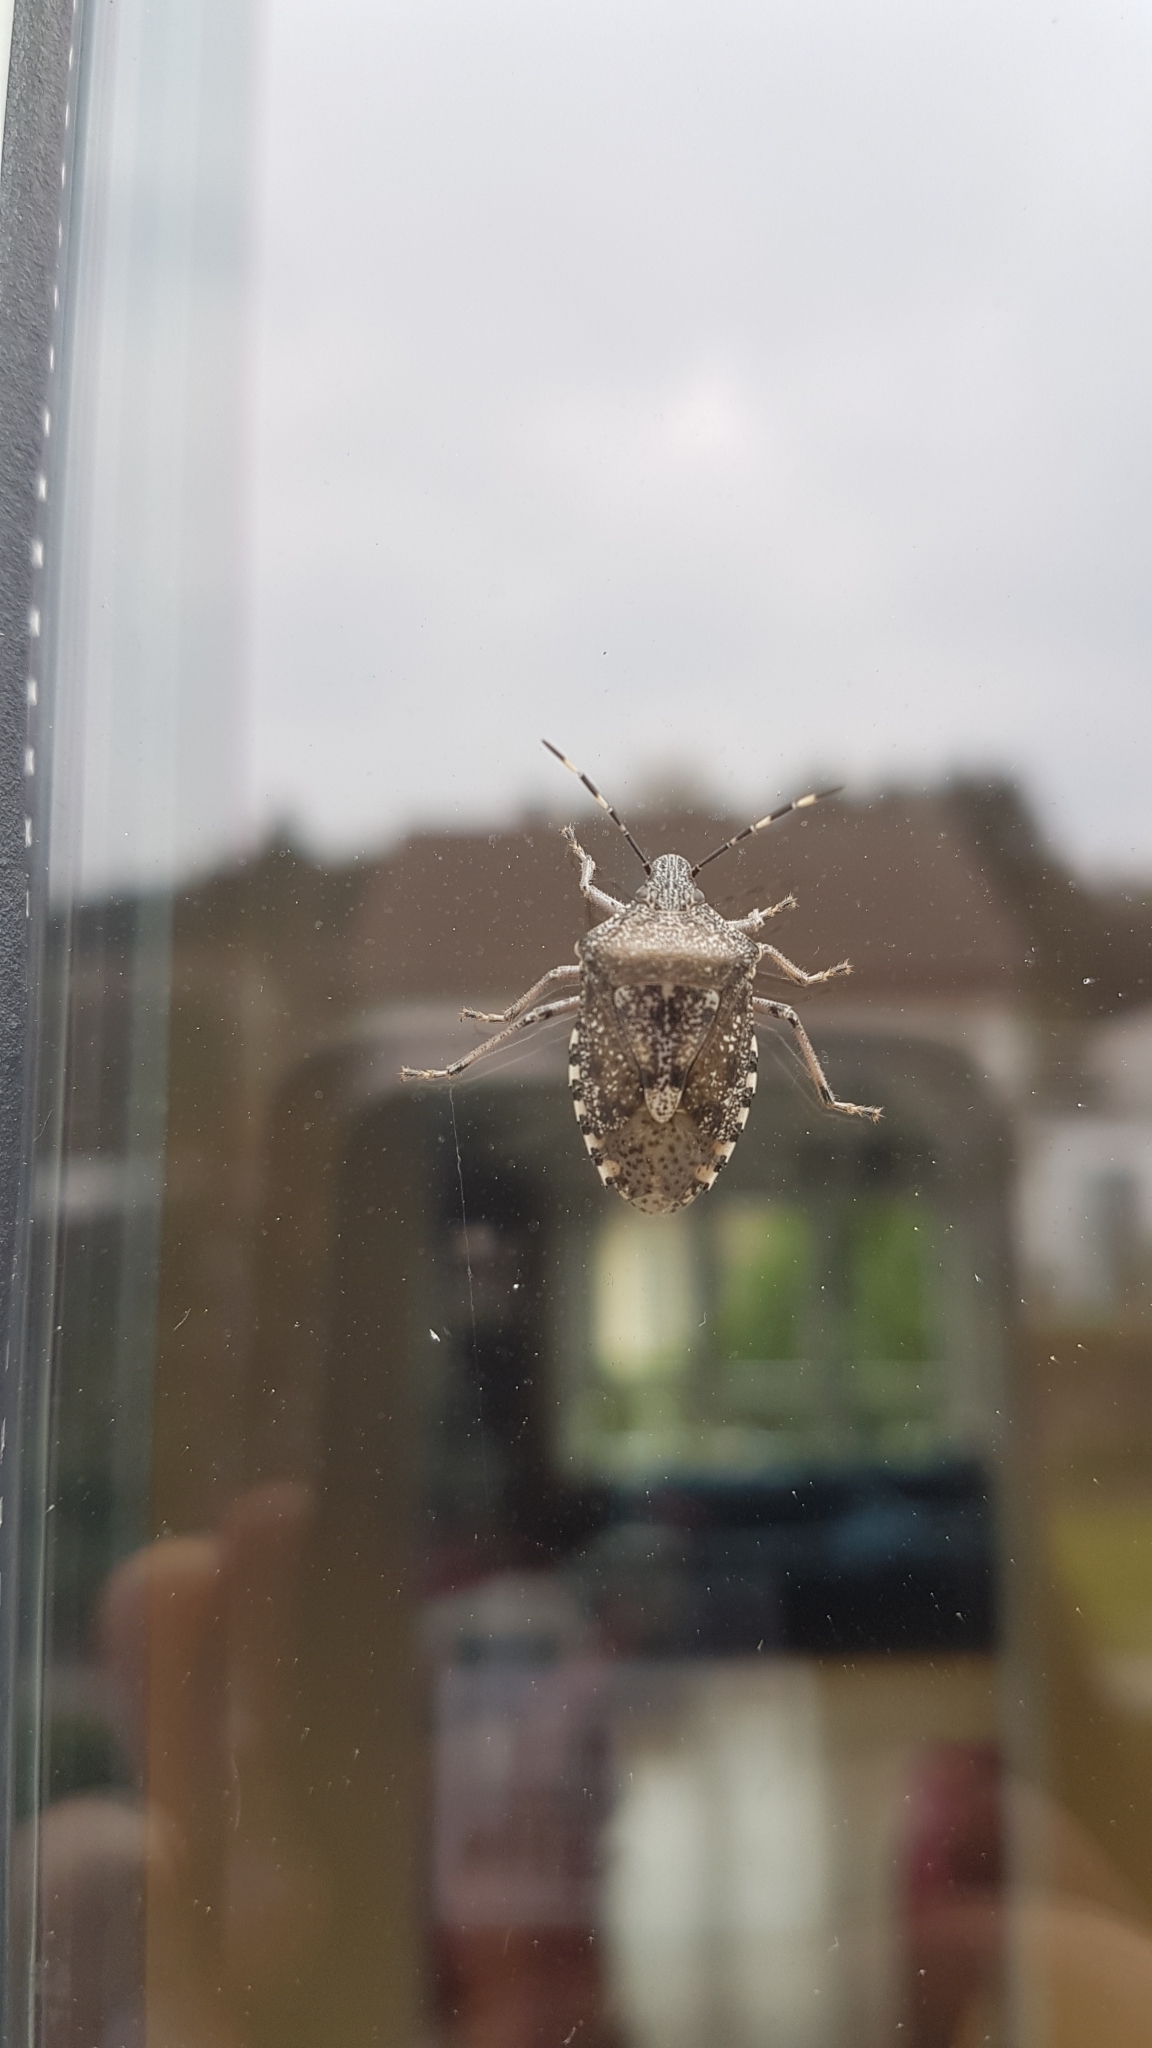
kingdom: Animalia
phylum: Arthropoda
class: Insecta
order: Hemiptera
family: Pentatomidae
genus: Rhaphigaster
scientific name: Rhaphigaster nebulosa
